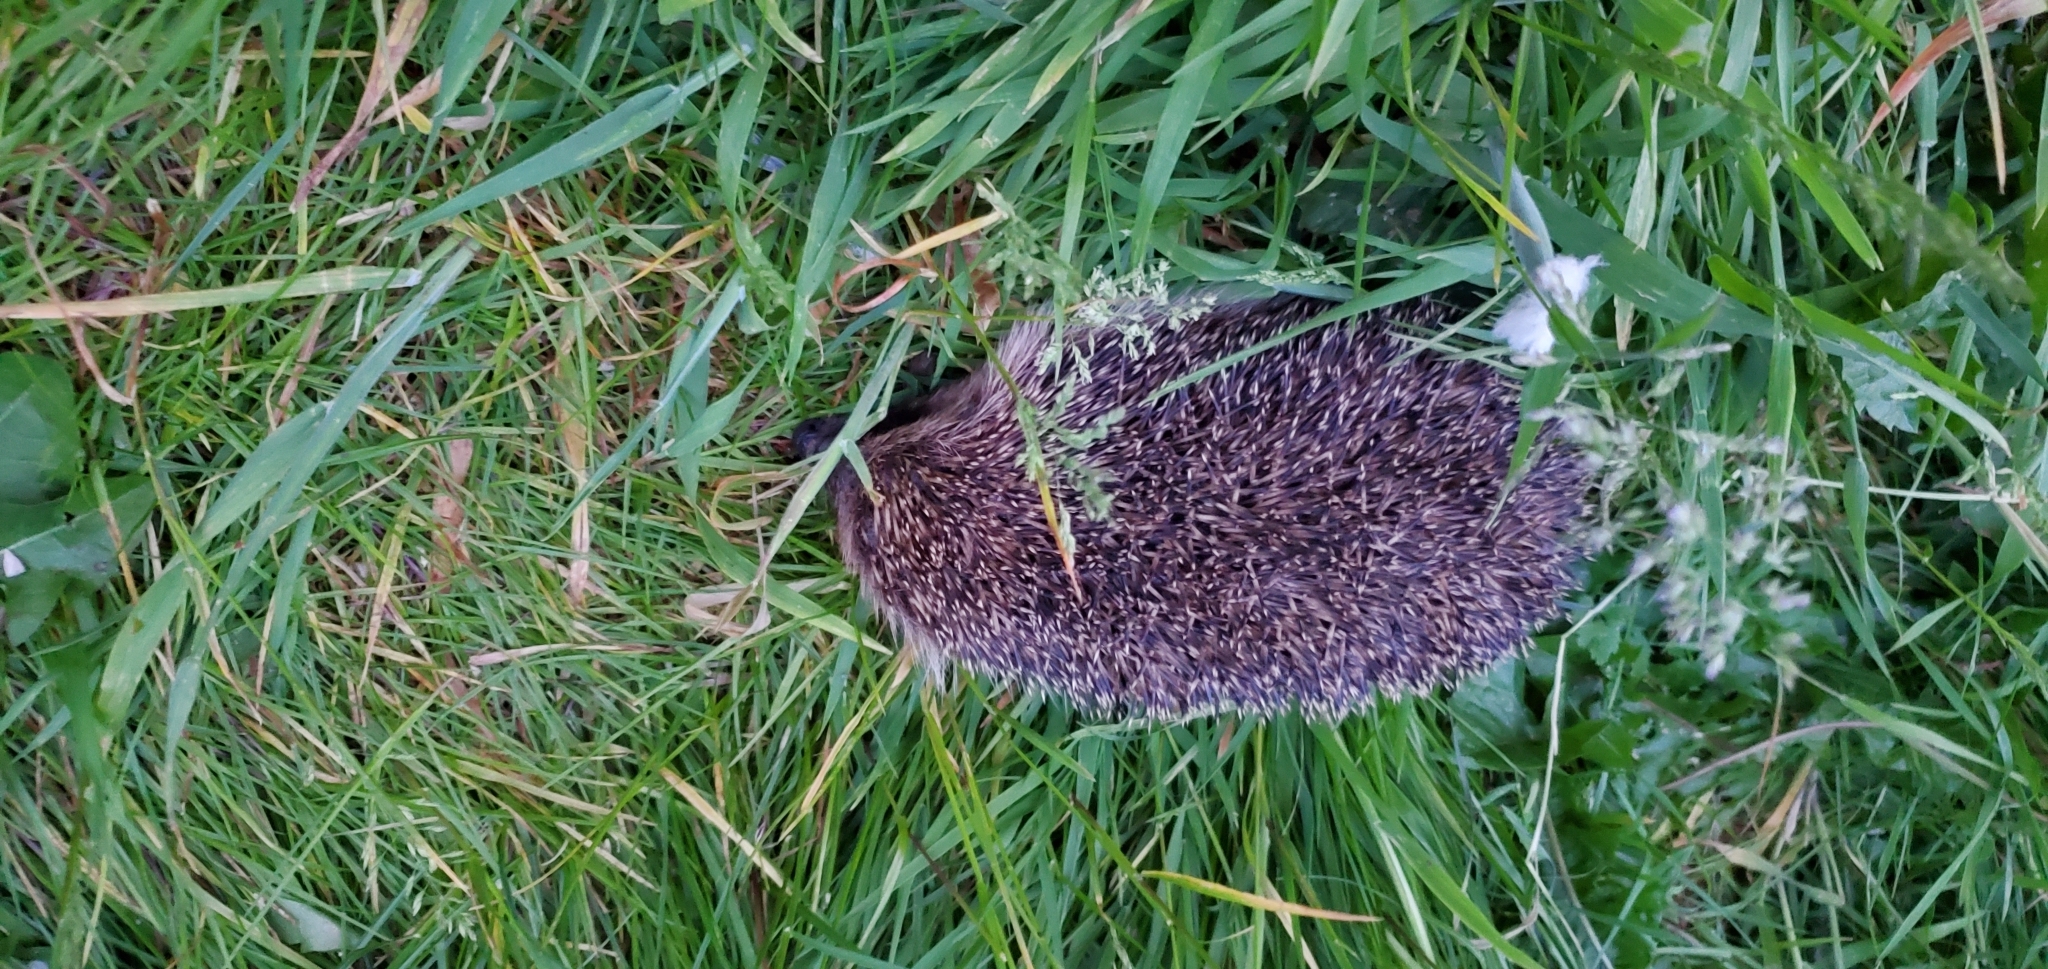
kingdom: Animalia
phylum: Chordata
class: Mammalia
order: Erinaceomorpha
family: Erinaceidae
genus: Erinaceus
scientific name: Erinaceus europaeus
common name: West european hedgehog
